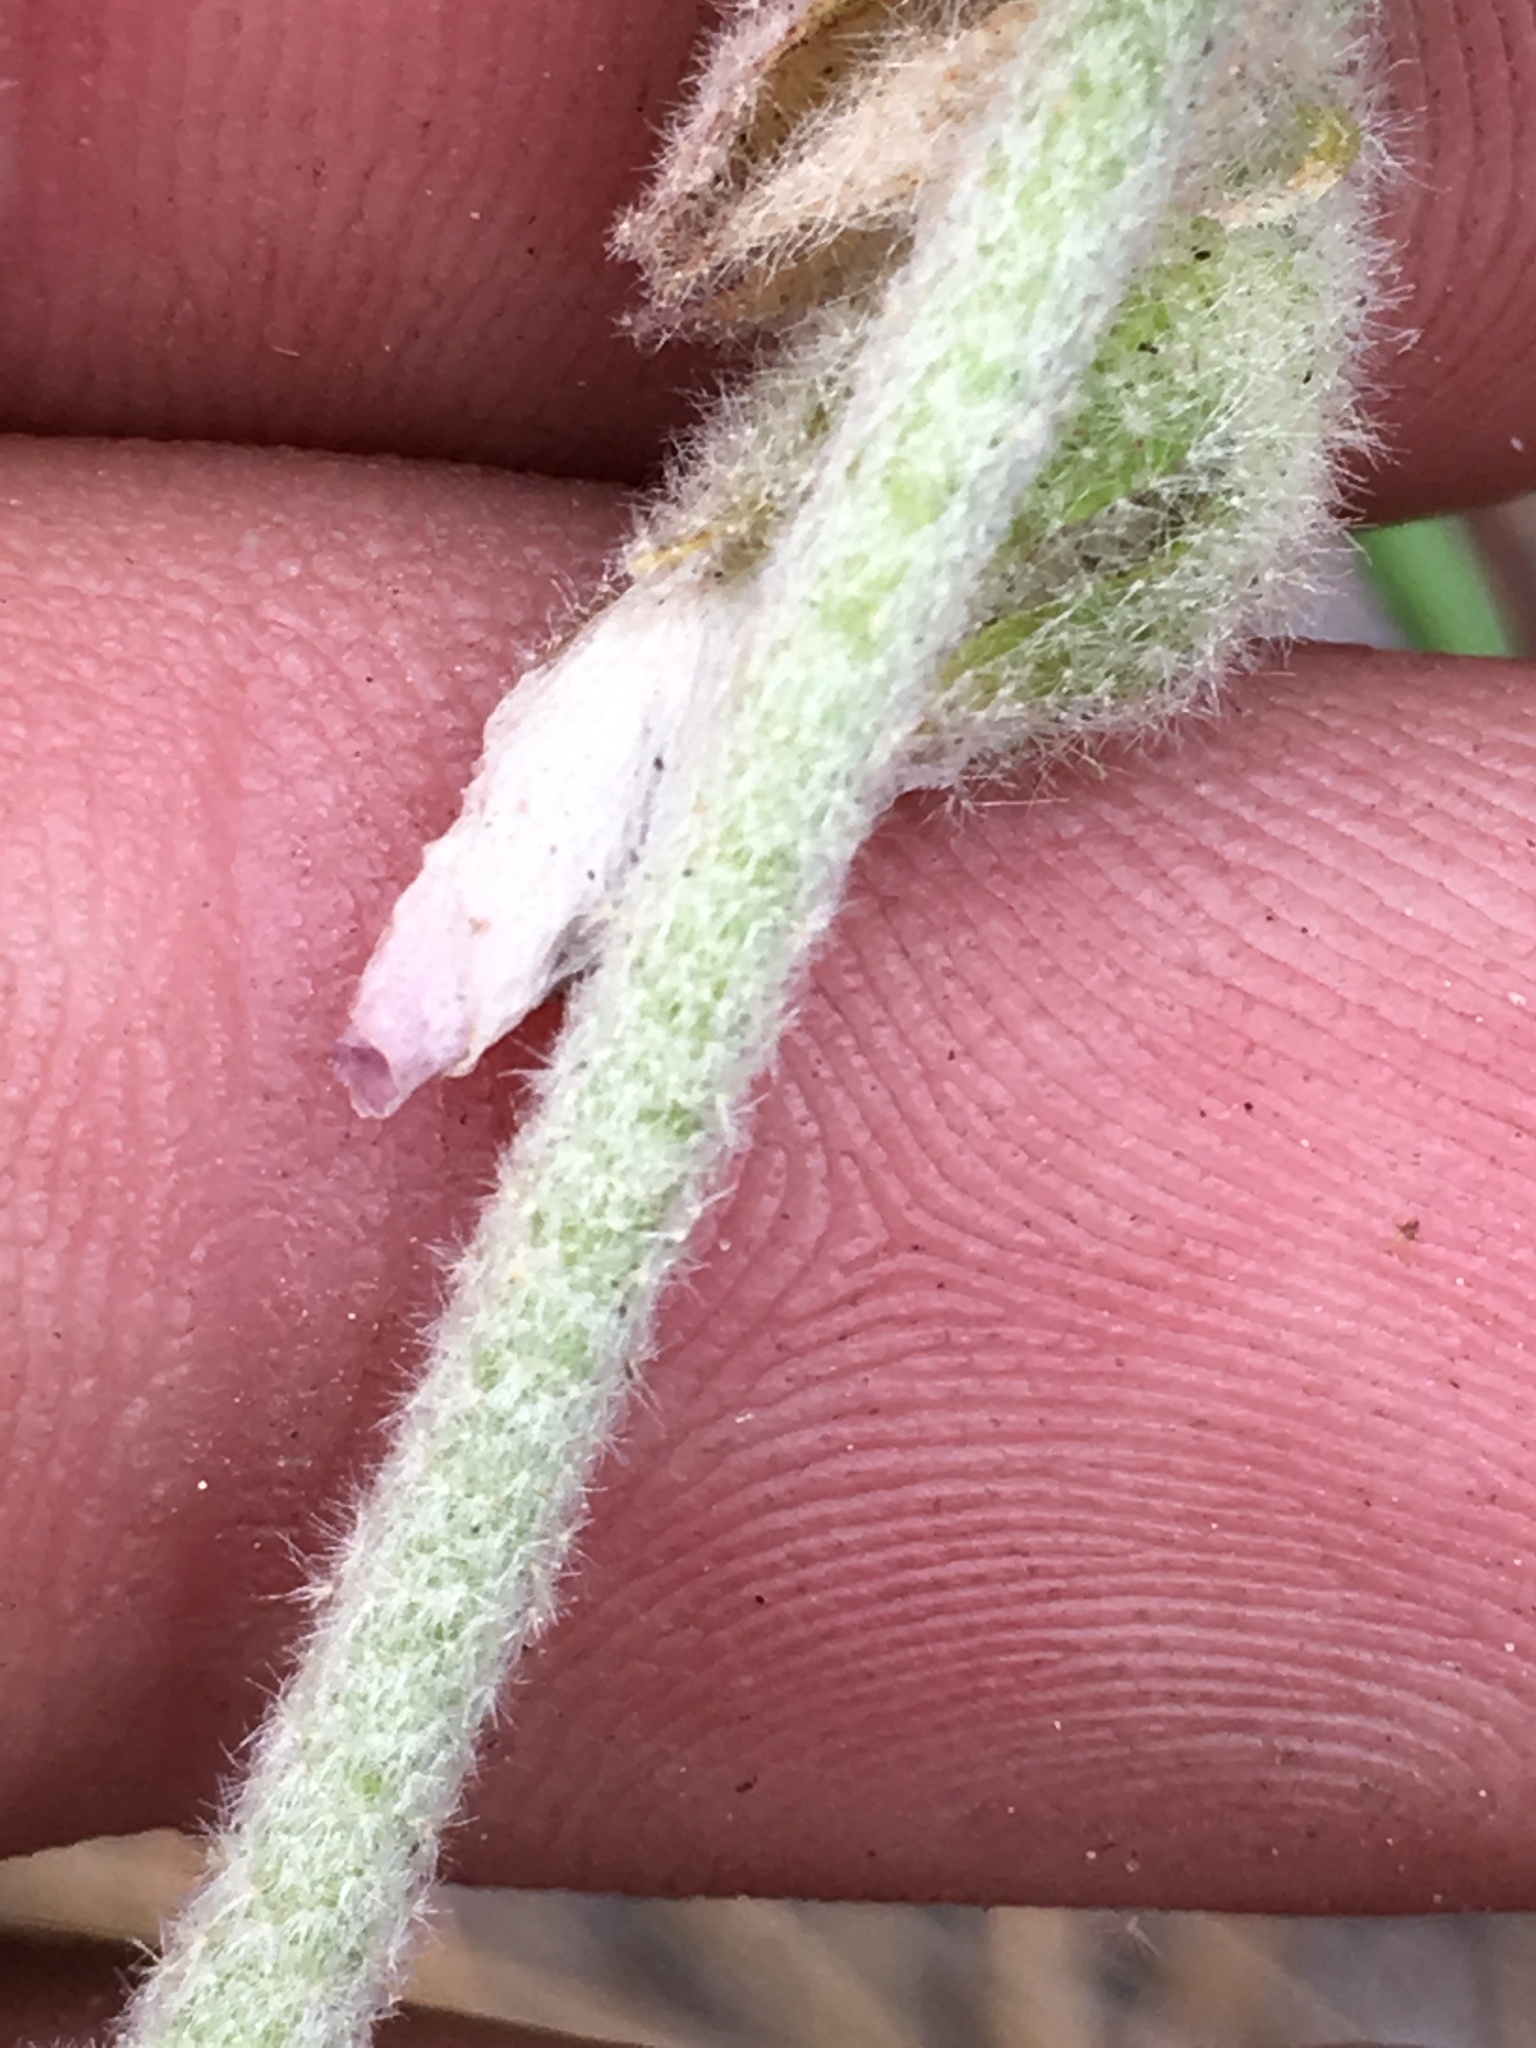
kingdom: Plantae
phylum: Tracheophyta
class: Magnoliopsida
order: Malvales
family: Malvaceae
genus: Malacothamnus
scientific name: Malacothamnus fremontii
